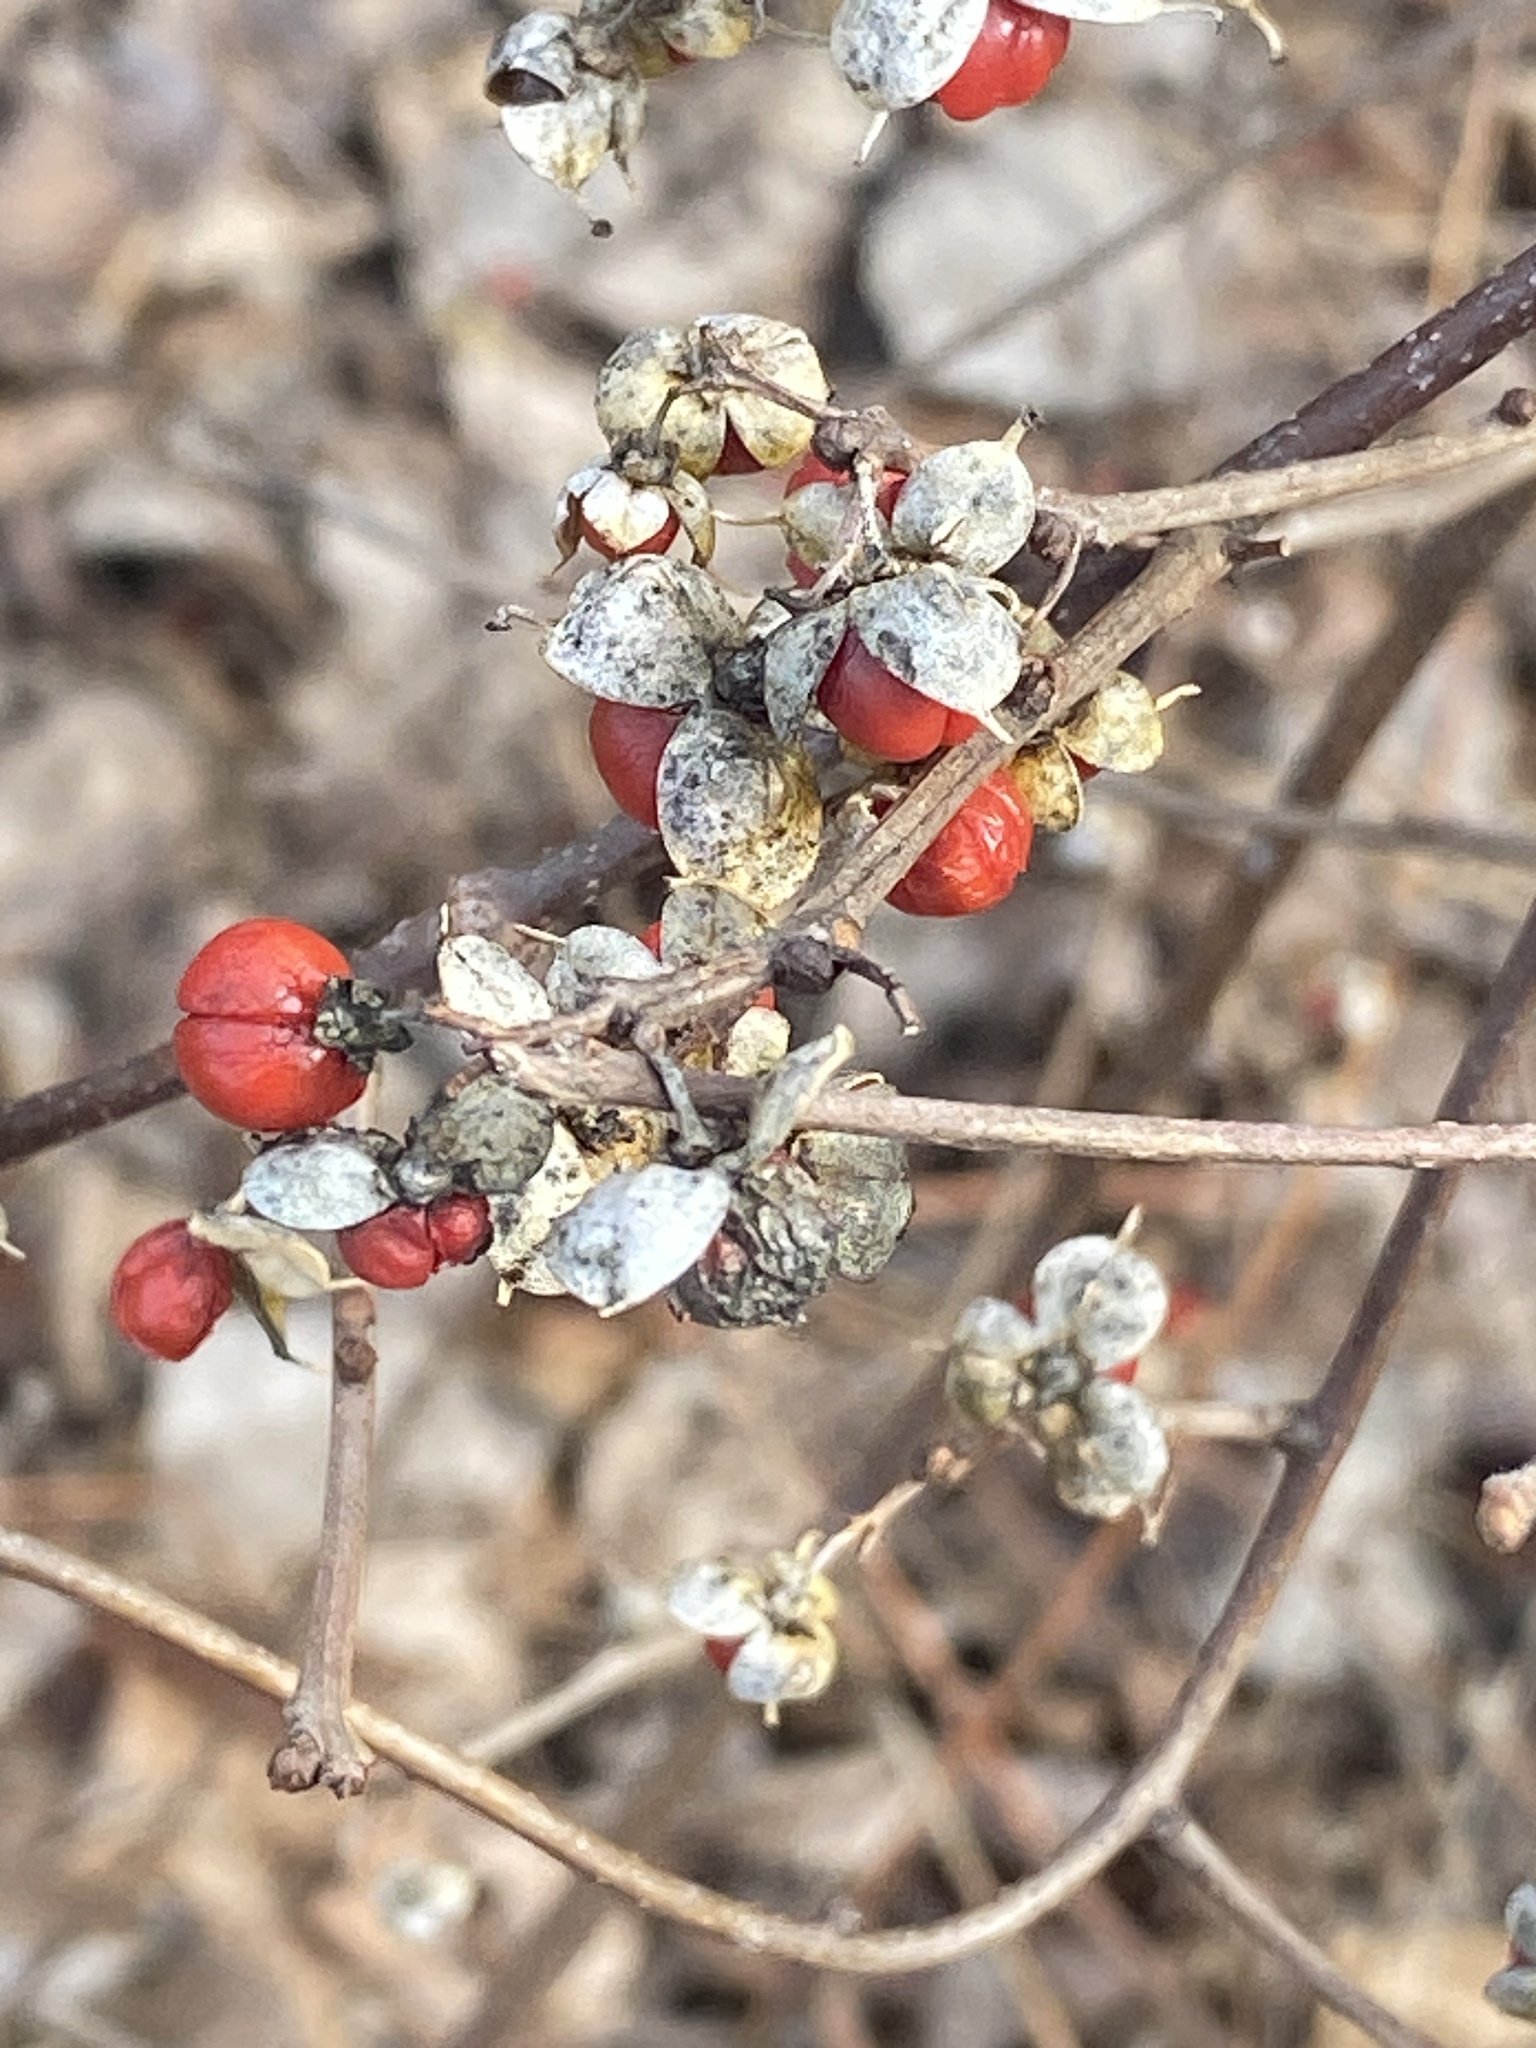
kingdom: Plantae
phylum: Tracheophyta
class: Magnoliopsida
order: Celastrales
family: Celastraceae
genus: Celastrus
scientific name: Celastrus orbiculatus
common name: Oriental bittersweet
